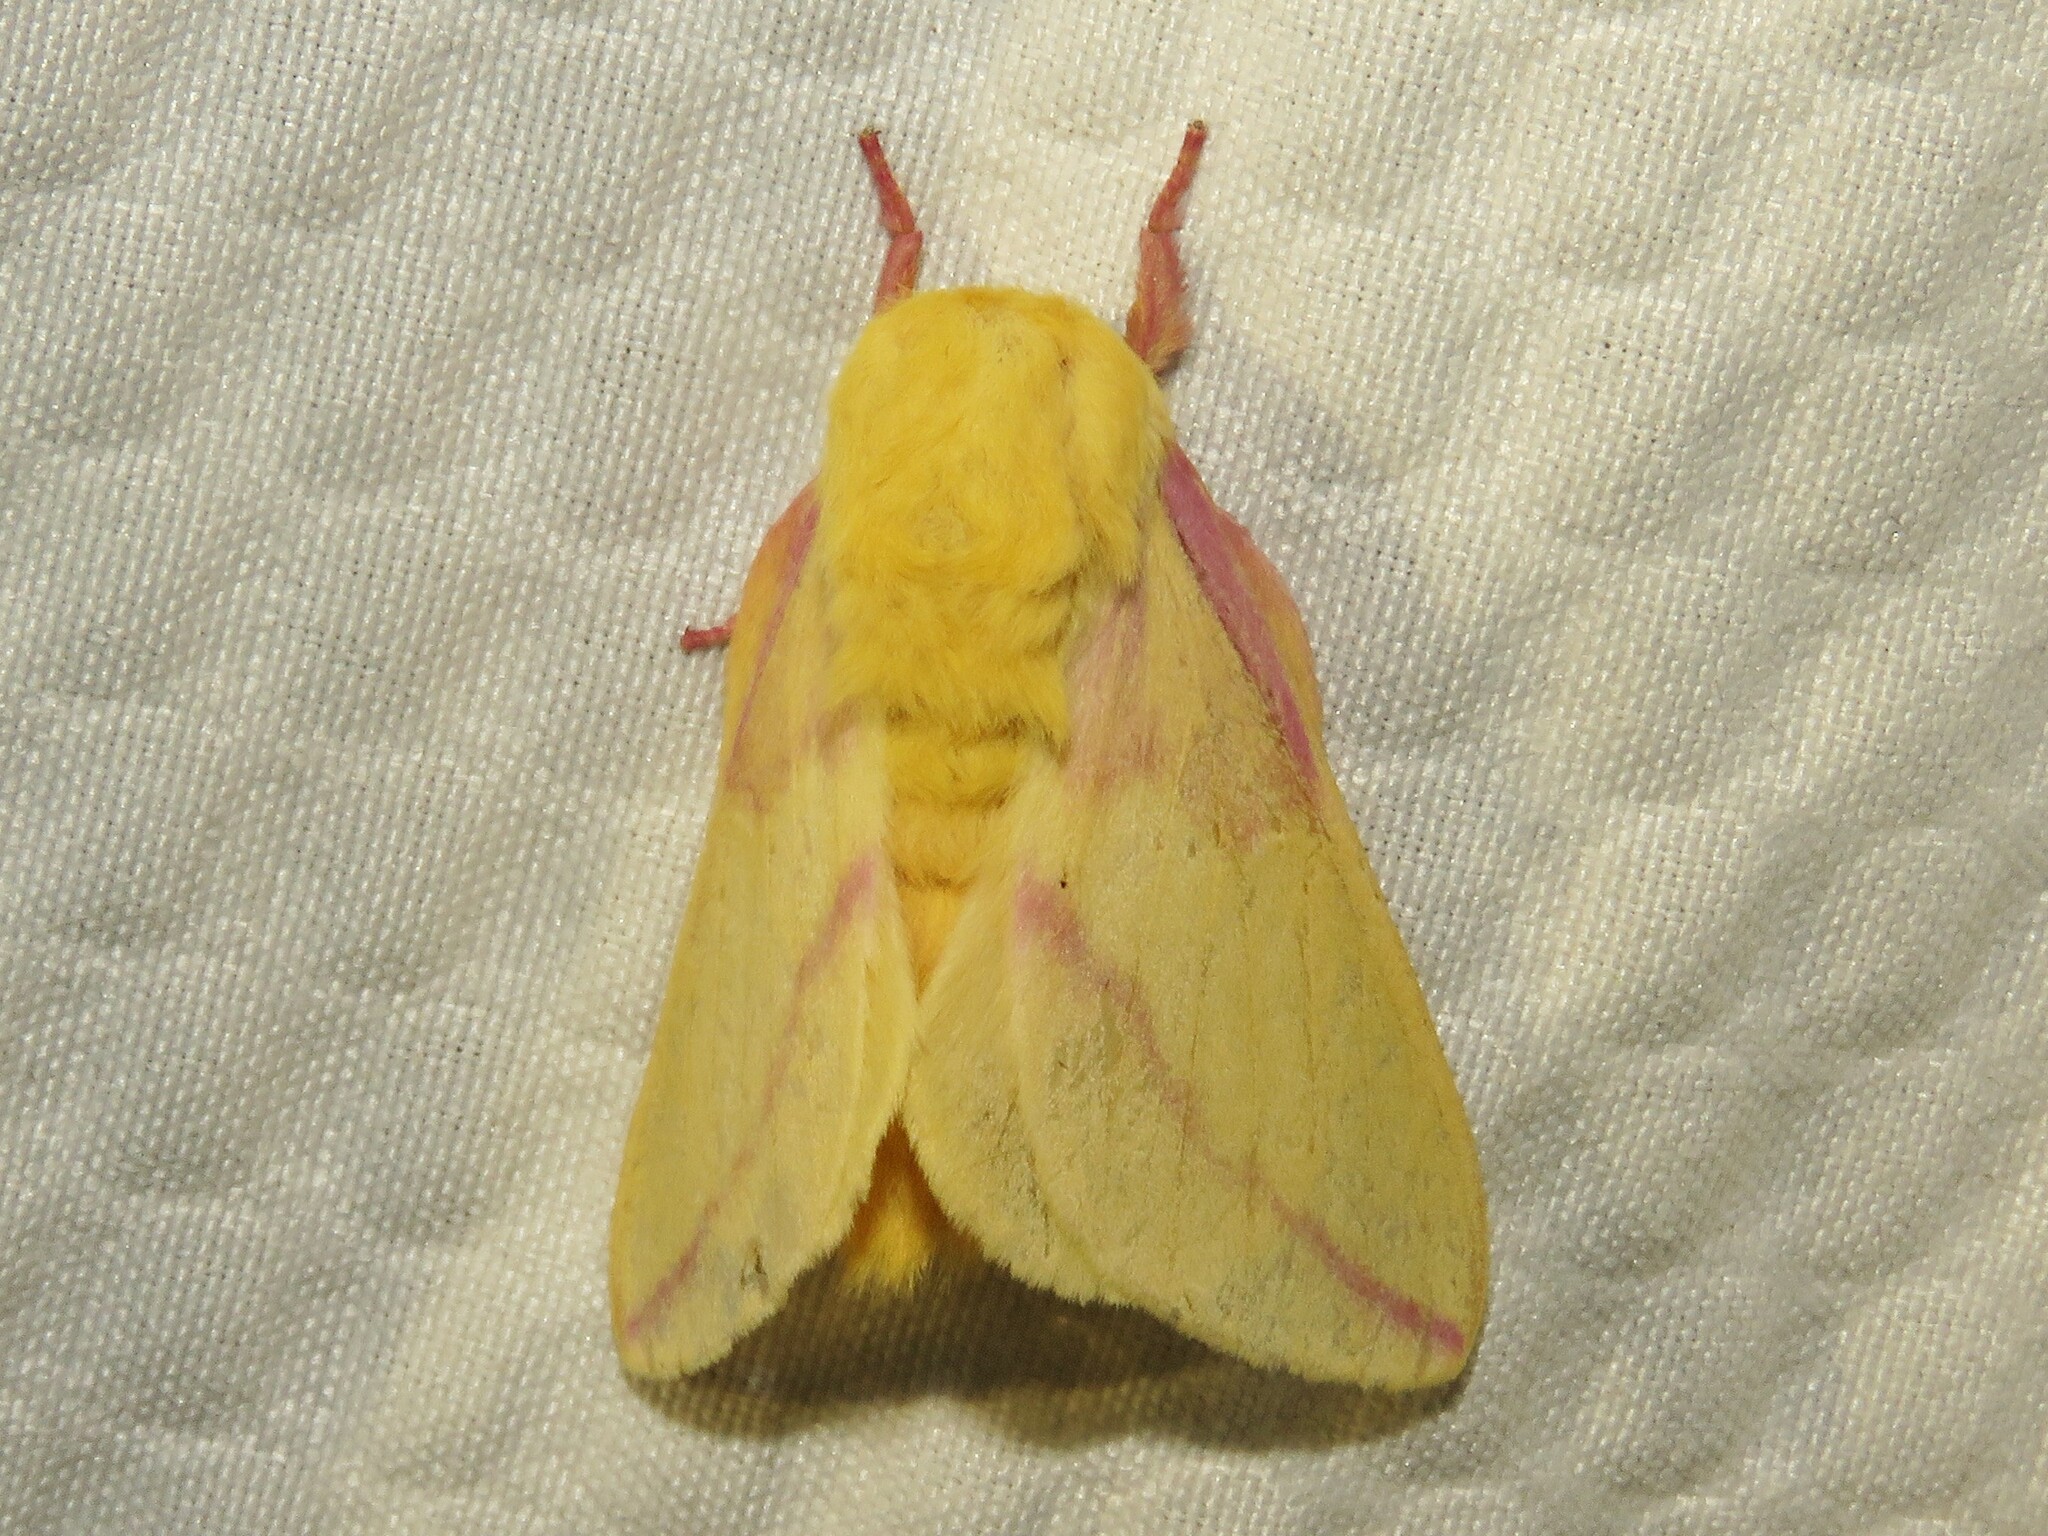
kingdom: Animalia
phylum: Arthropoda
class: Insecta
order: Lepidoptera
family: Saturniidae
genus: Dryocampa
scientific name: Dryocampa rubicunda
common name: Rosy maple moth
